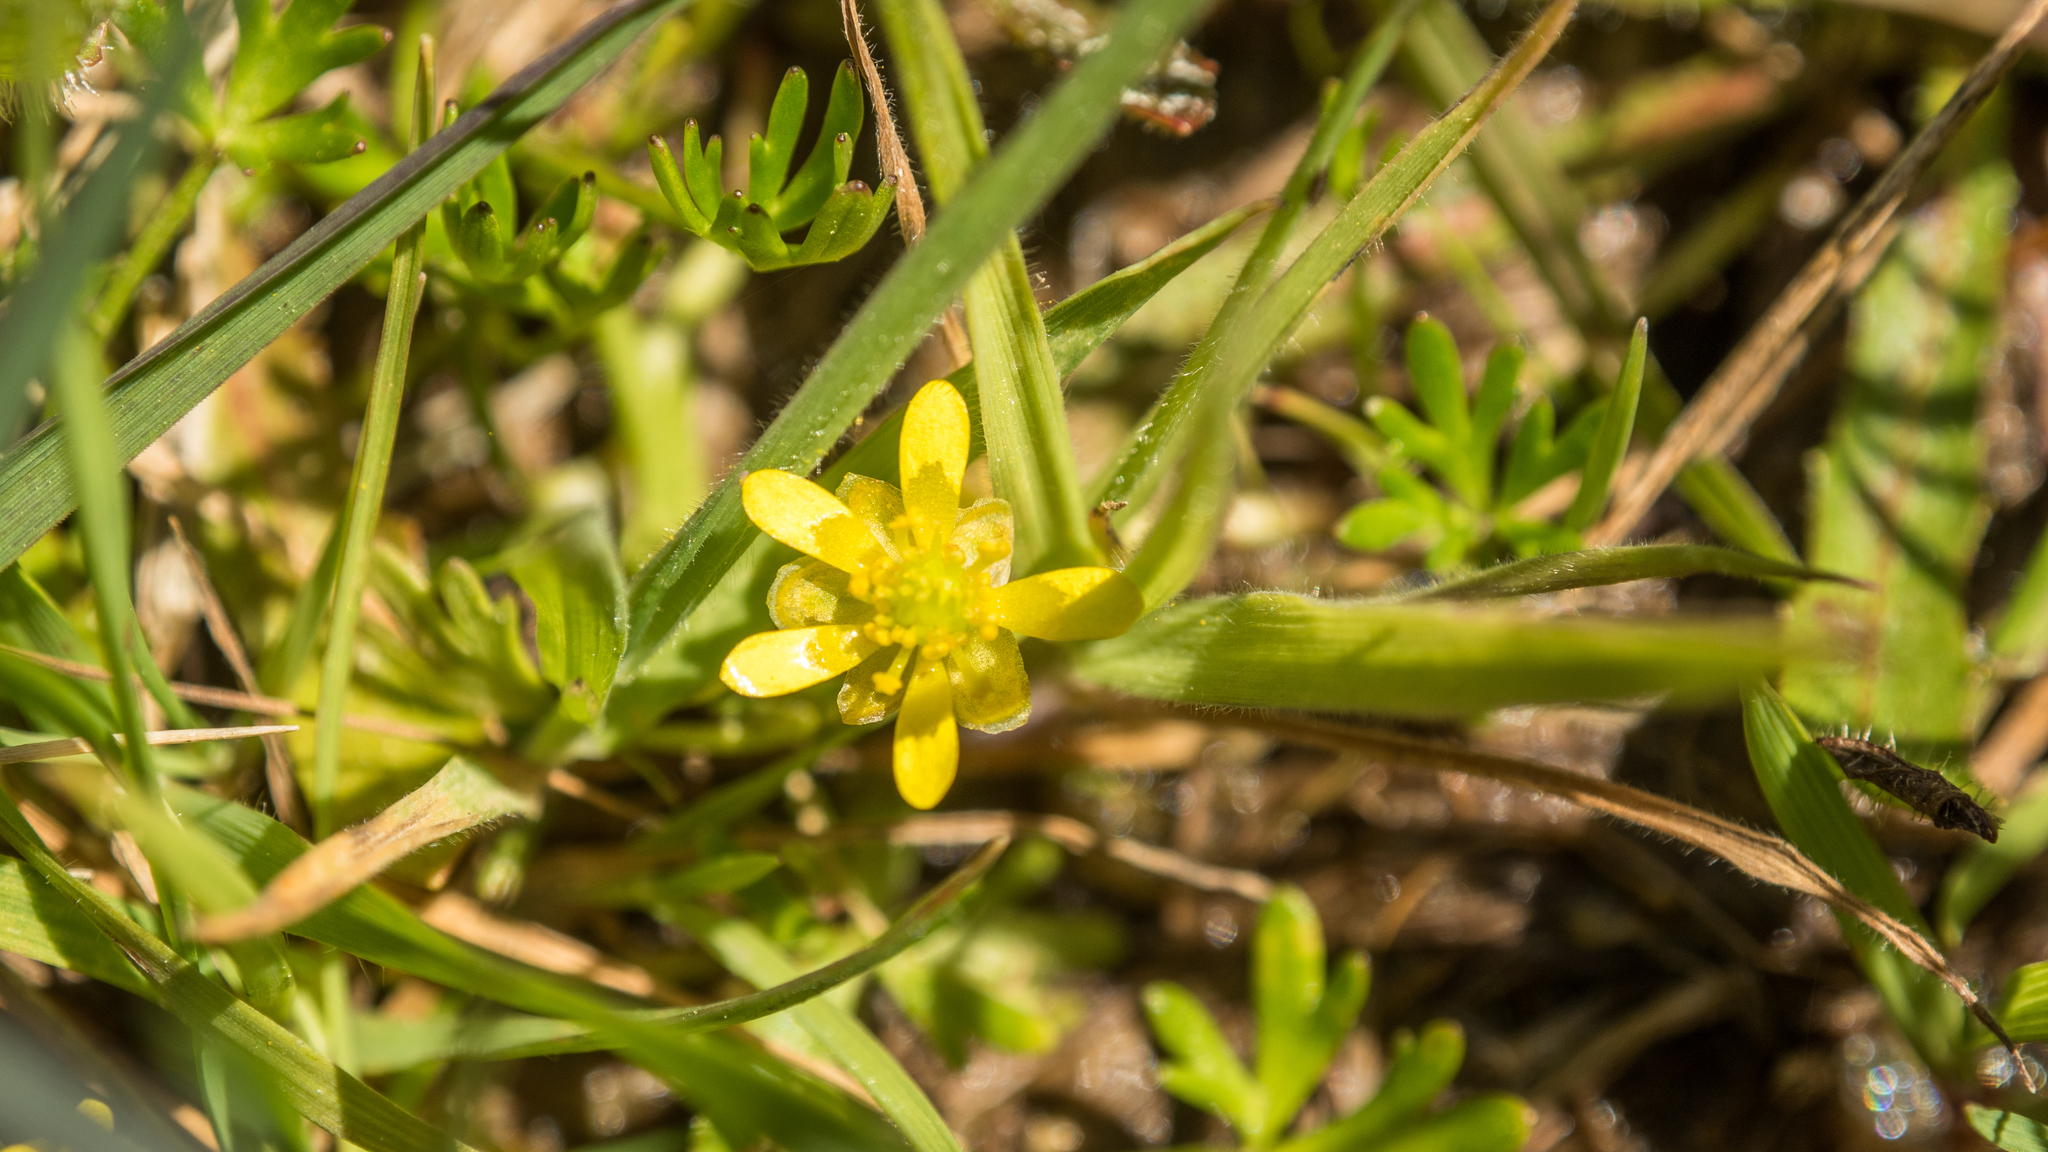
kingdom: Plantae
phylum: Tracheophyta
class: Magnoliopsida
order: Ranunculales
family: Ranunculaceae
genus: Ranunculus
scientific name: Ranunculus glabrifolius
